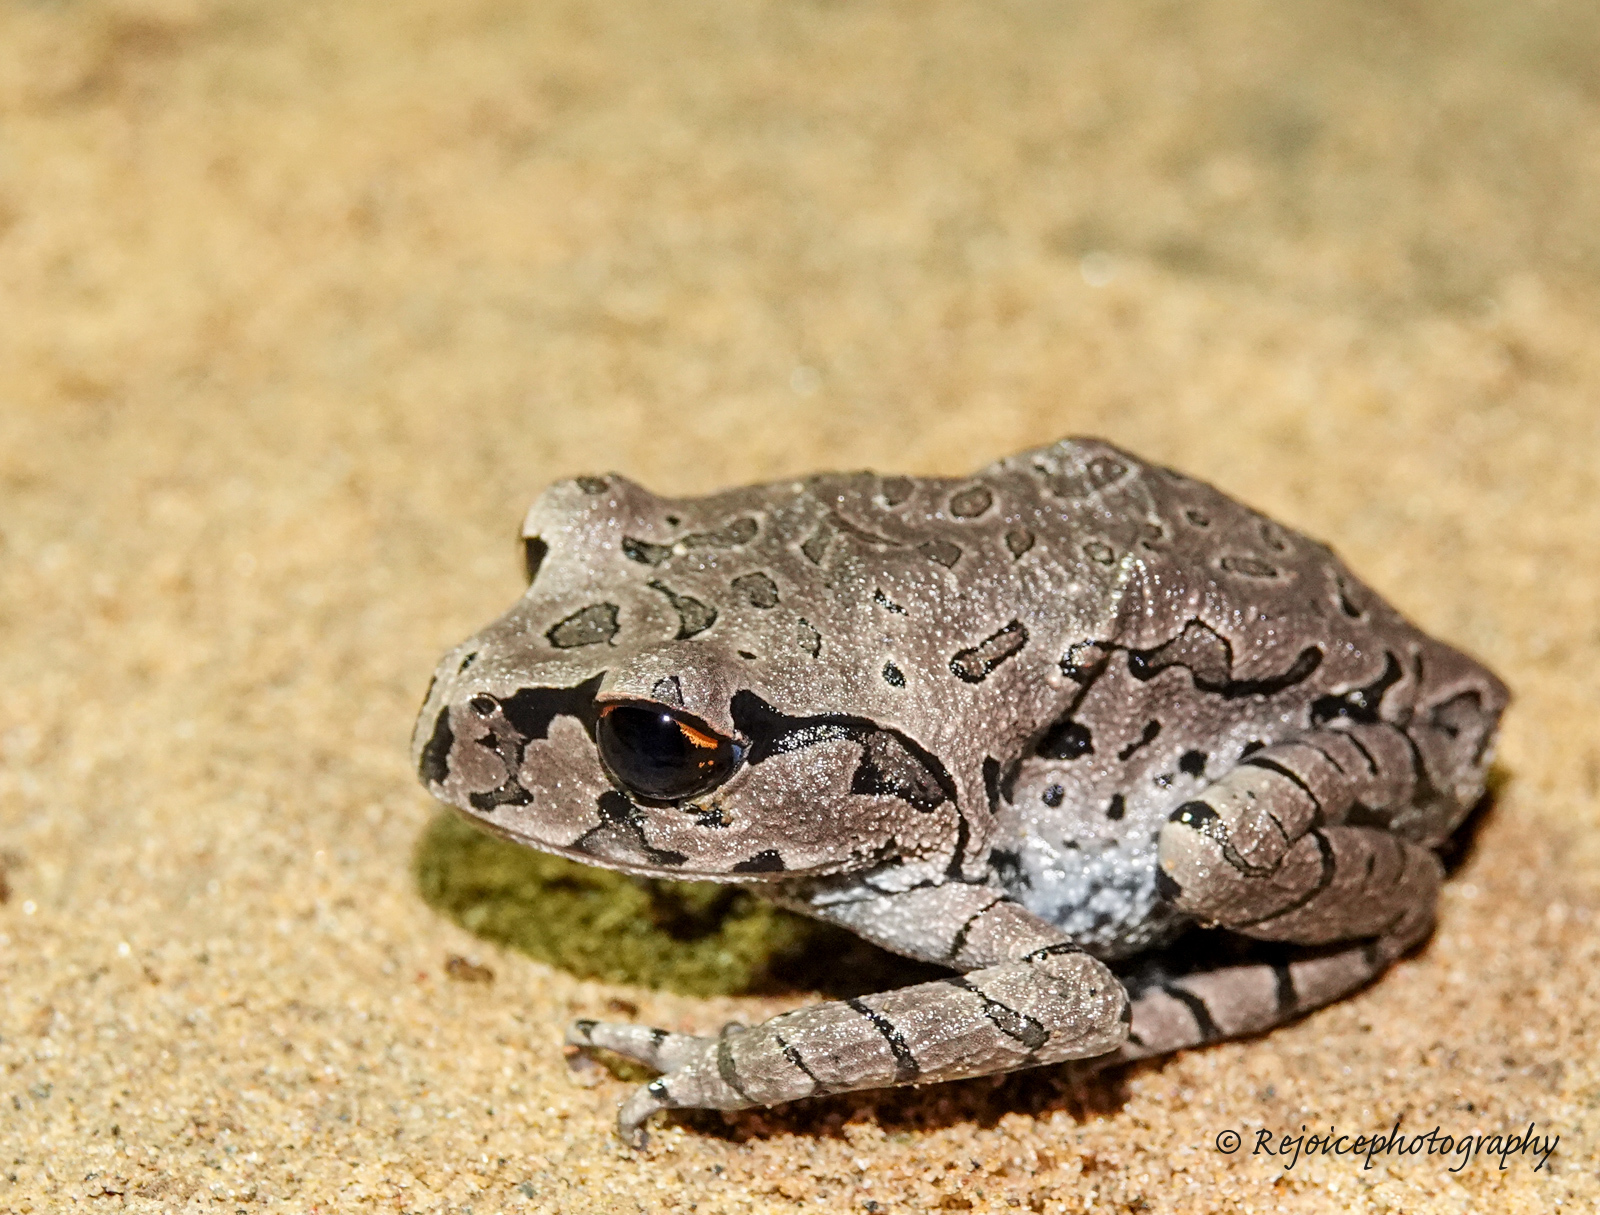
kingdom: Animalia
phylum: Chordata
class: Amphibia
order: Anura
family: Megophryidae
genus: Leptobrachium
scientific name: Leptobrachium rakhinense
